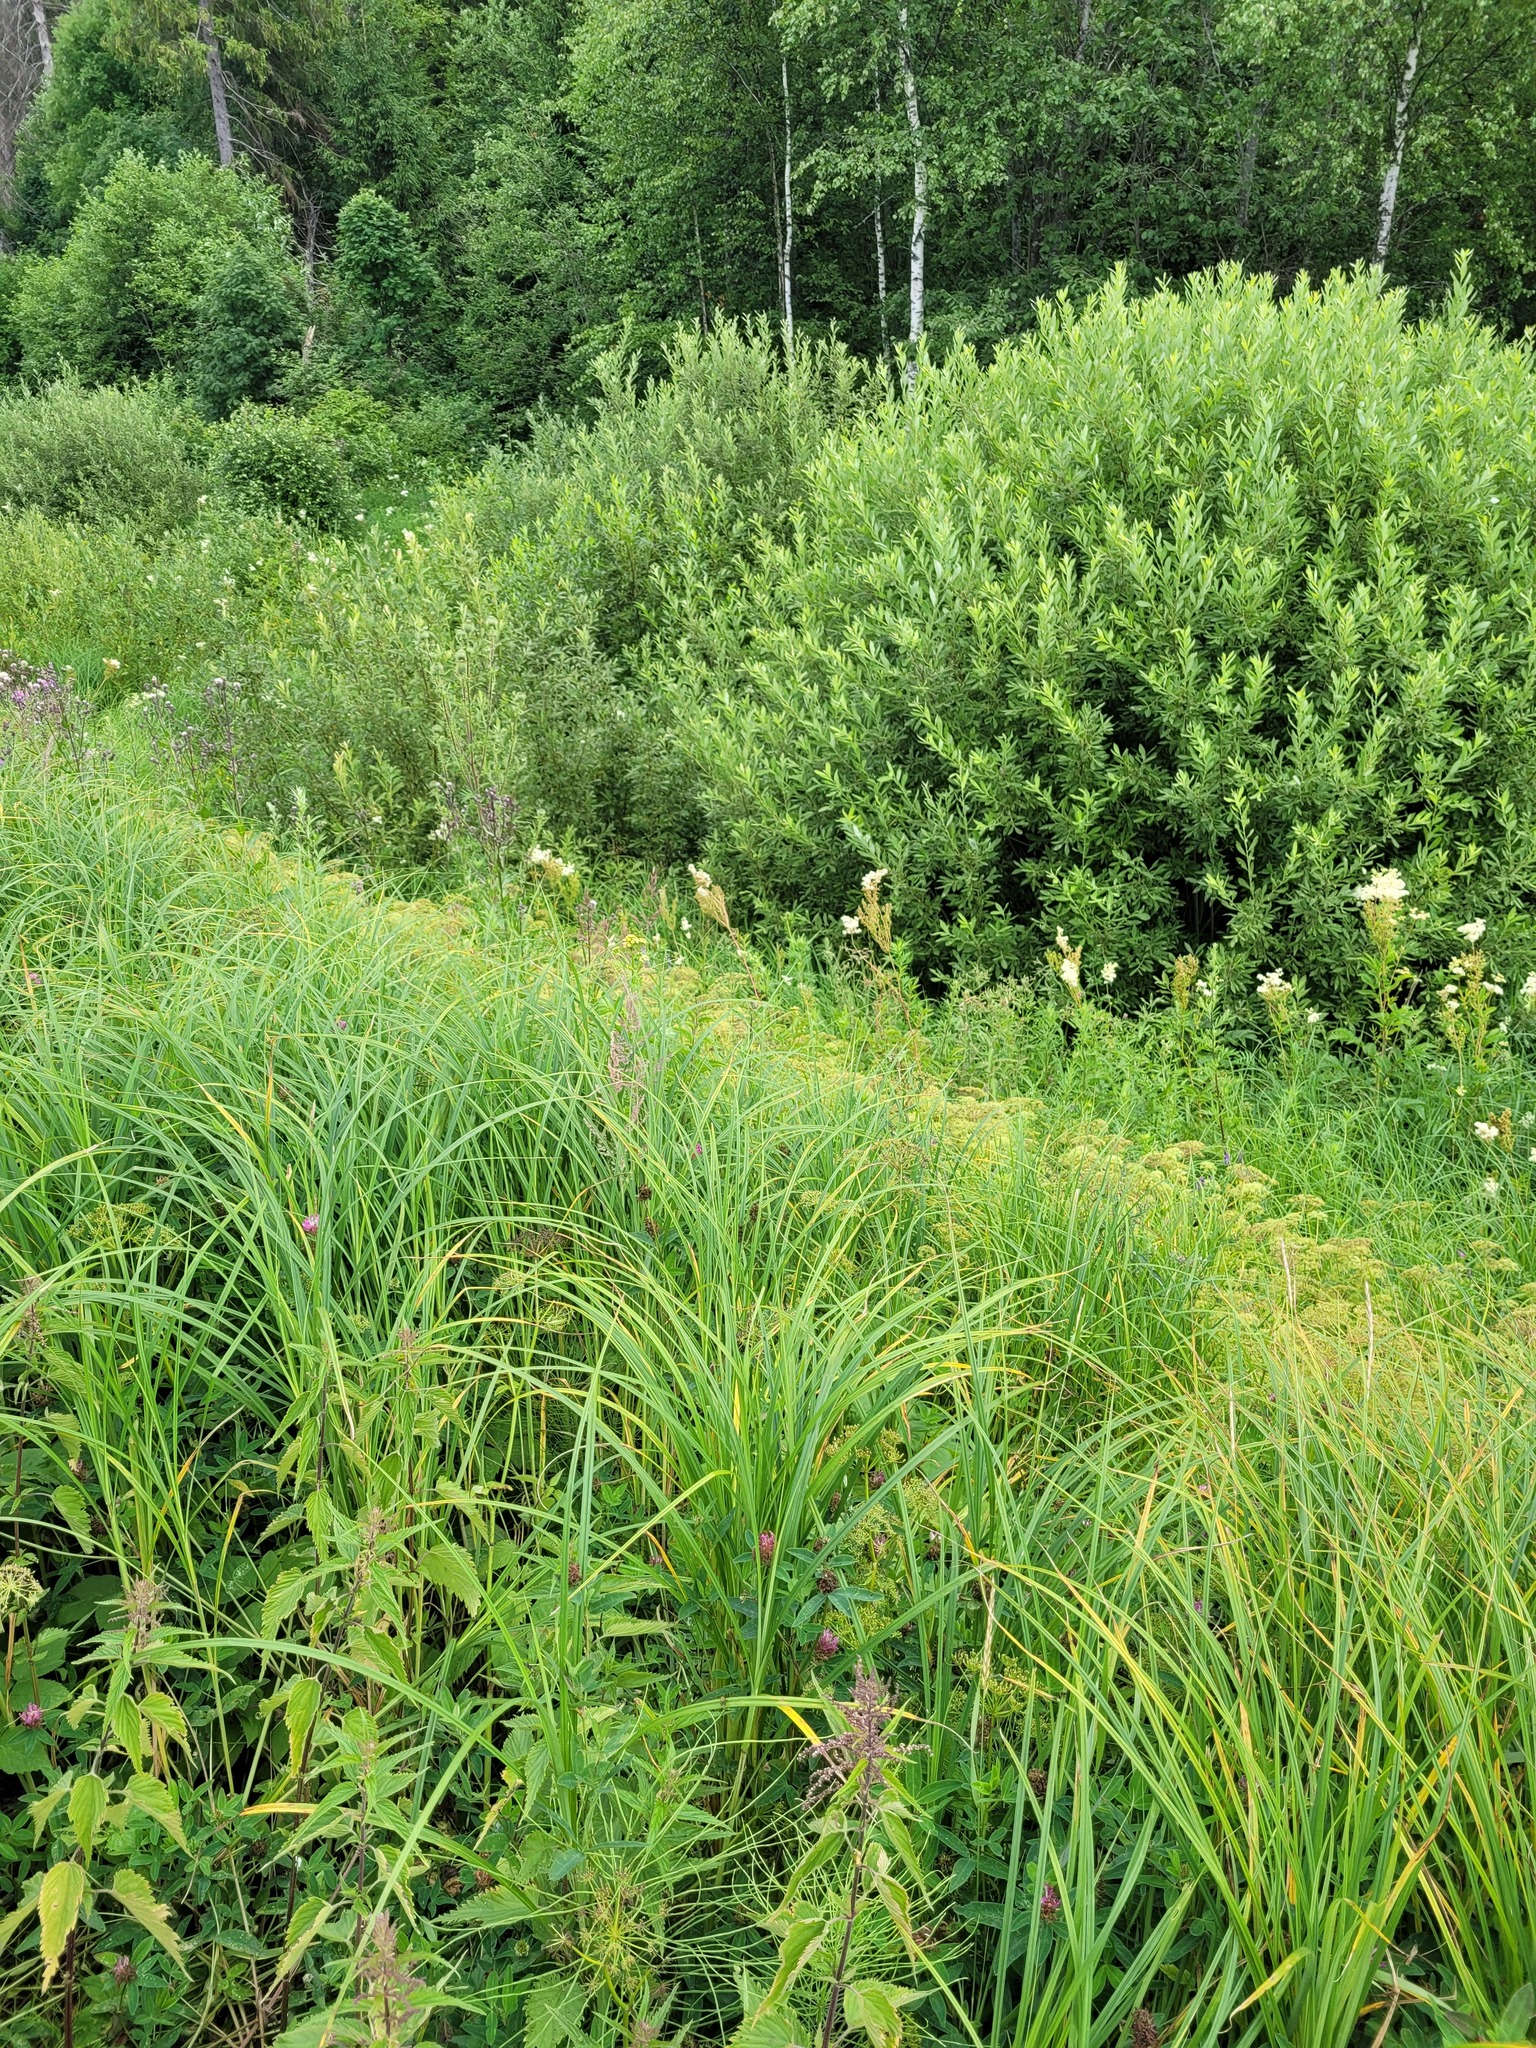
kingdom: Plantae
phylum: Tracheophyta
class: Magnoliopsida
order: Rosales
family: Rosaceae
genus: Filipendula
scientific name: Filipendula ulmaria
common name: Meadowsweet
